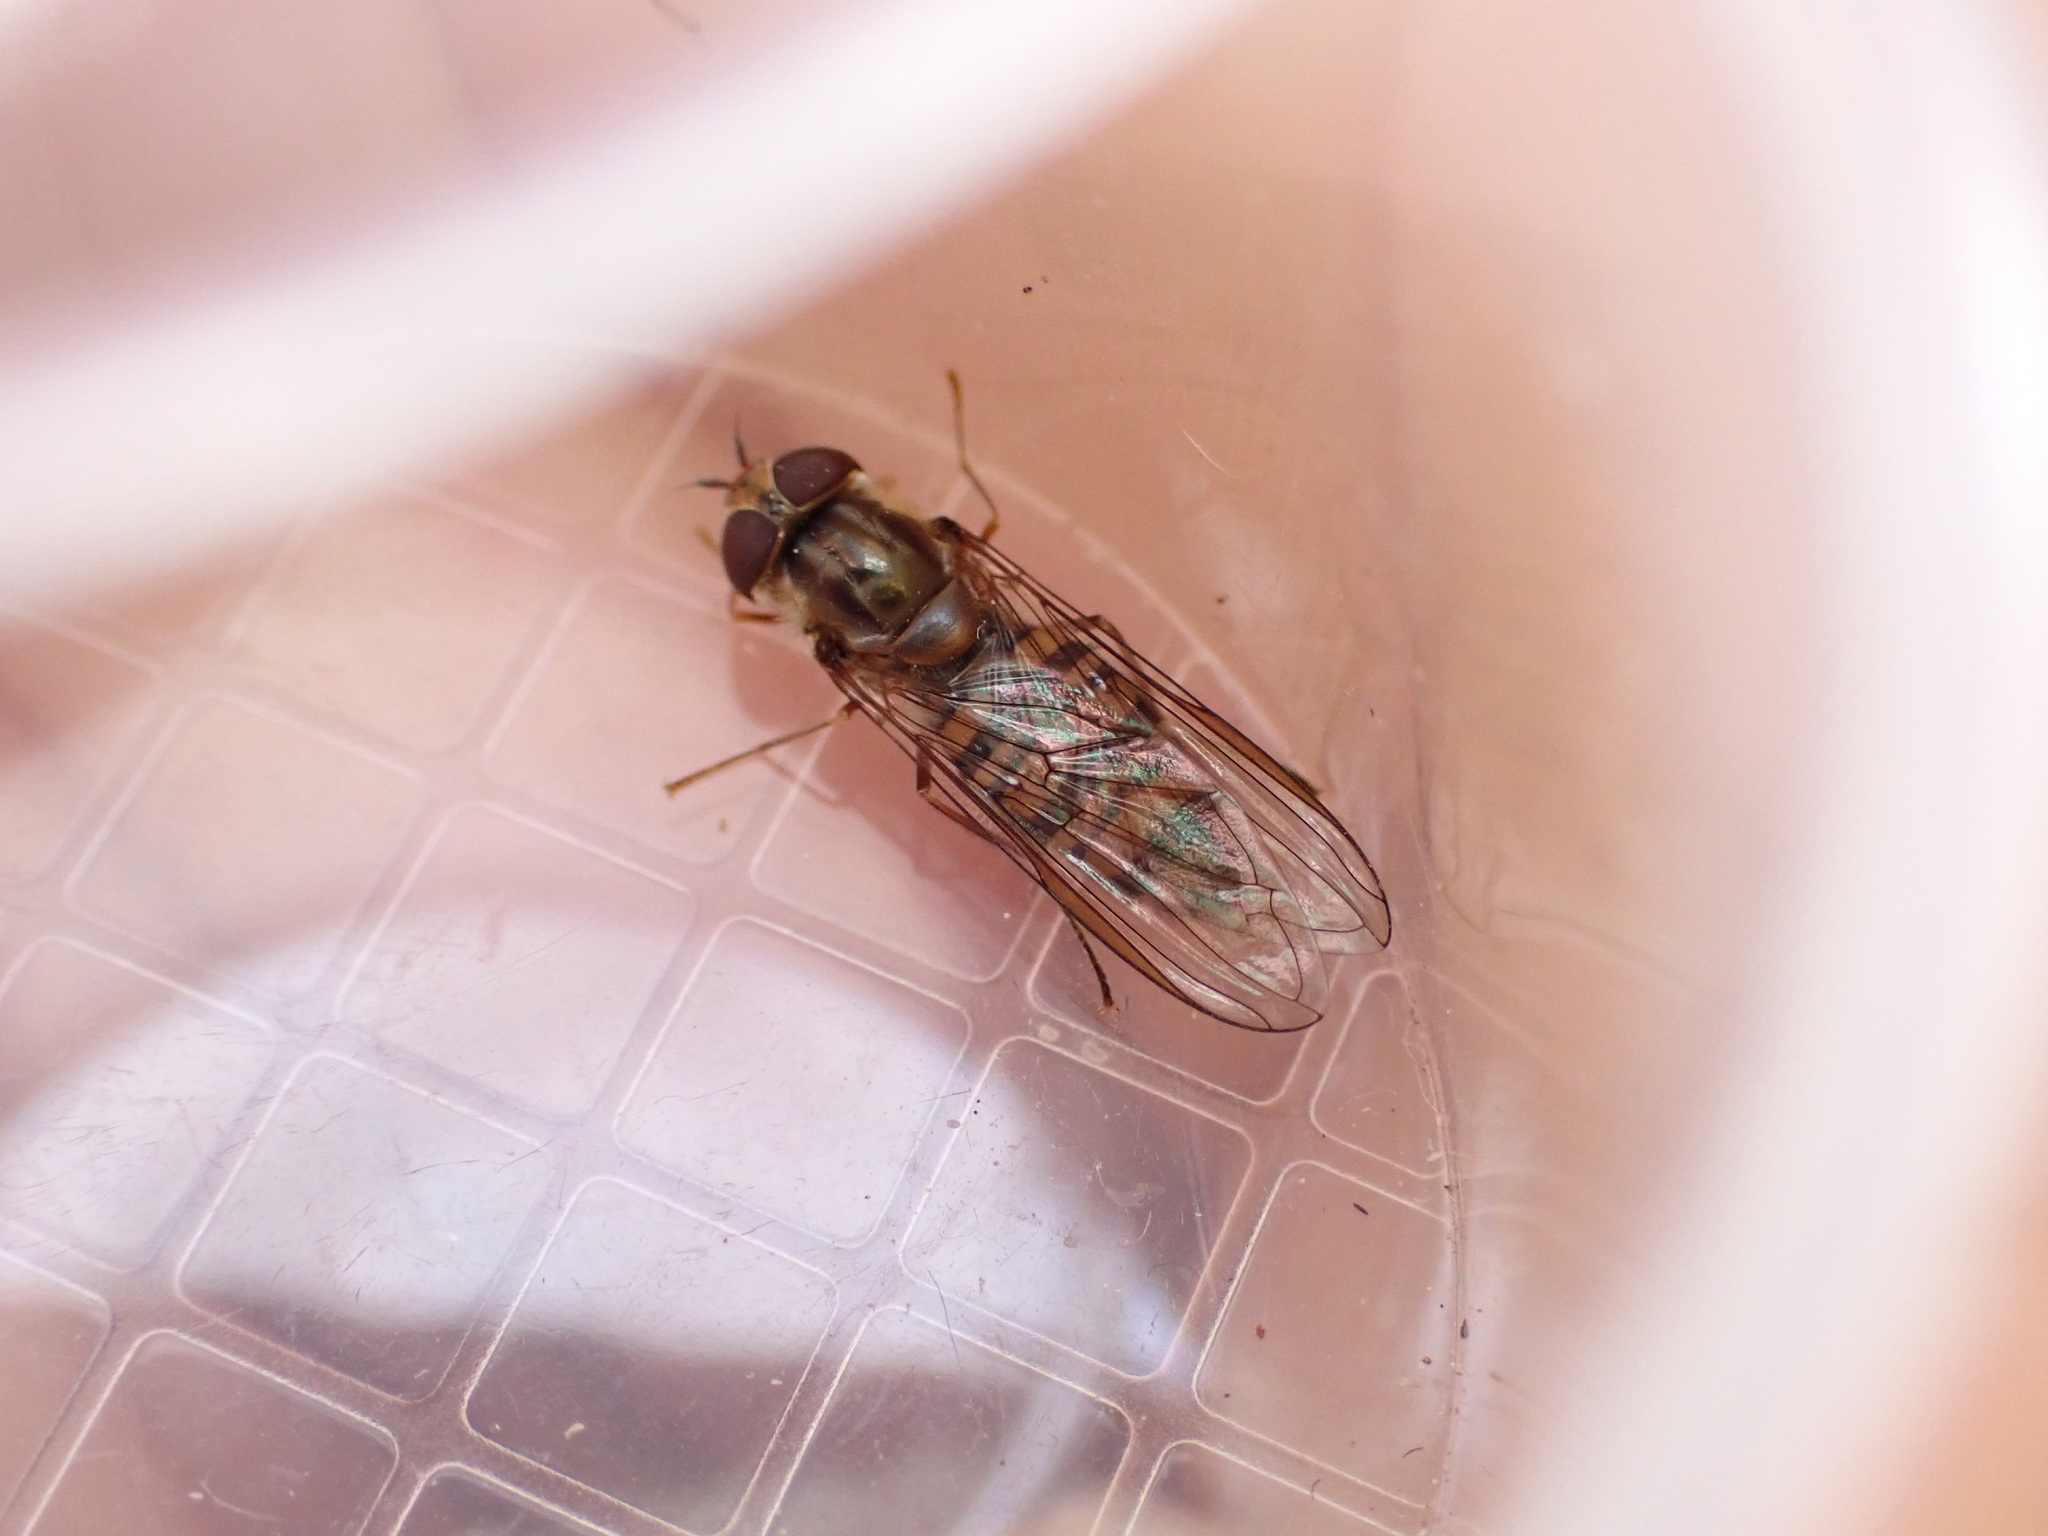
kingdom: Animalia
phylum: Arthropoda
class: Insecta
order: Diptera
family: Syrphidae
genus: Episyrphus
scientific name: Episyrphus balteatus
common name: Marmalade hoverfly
